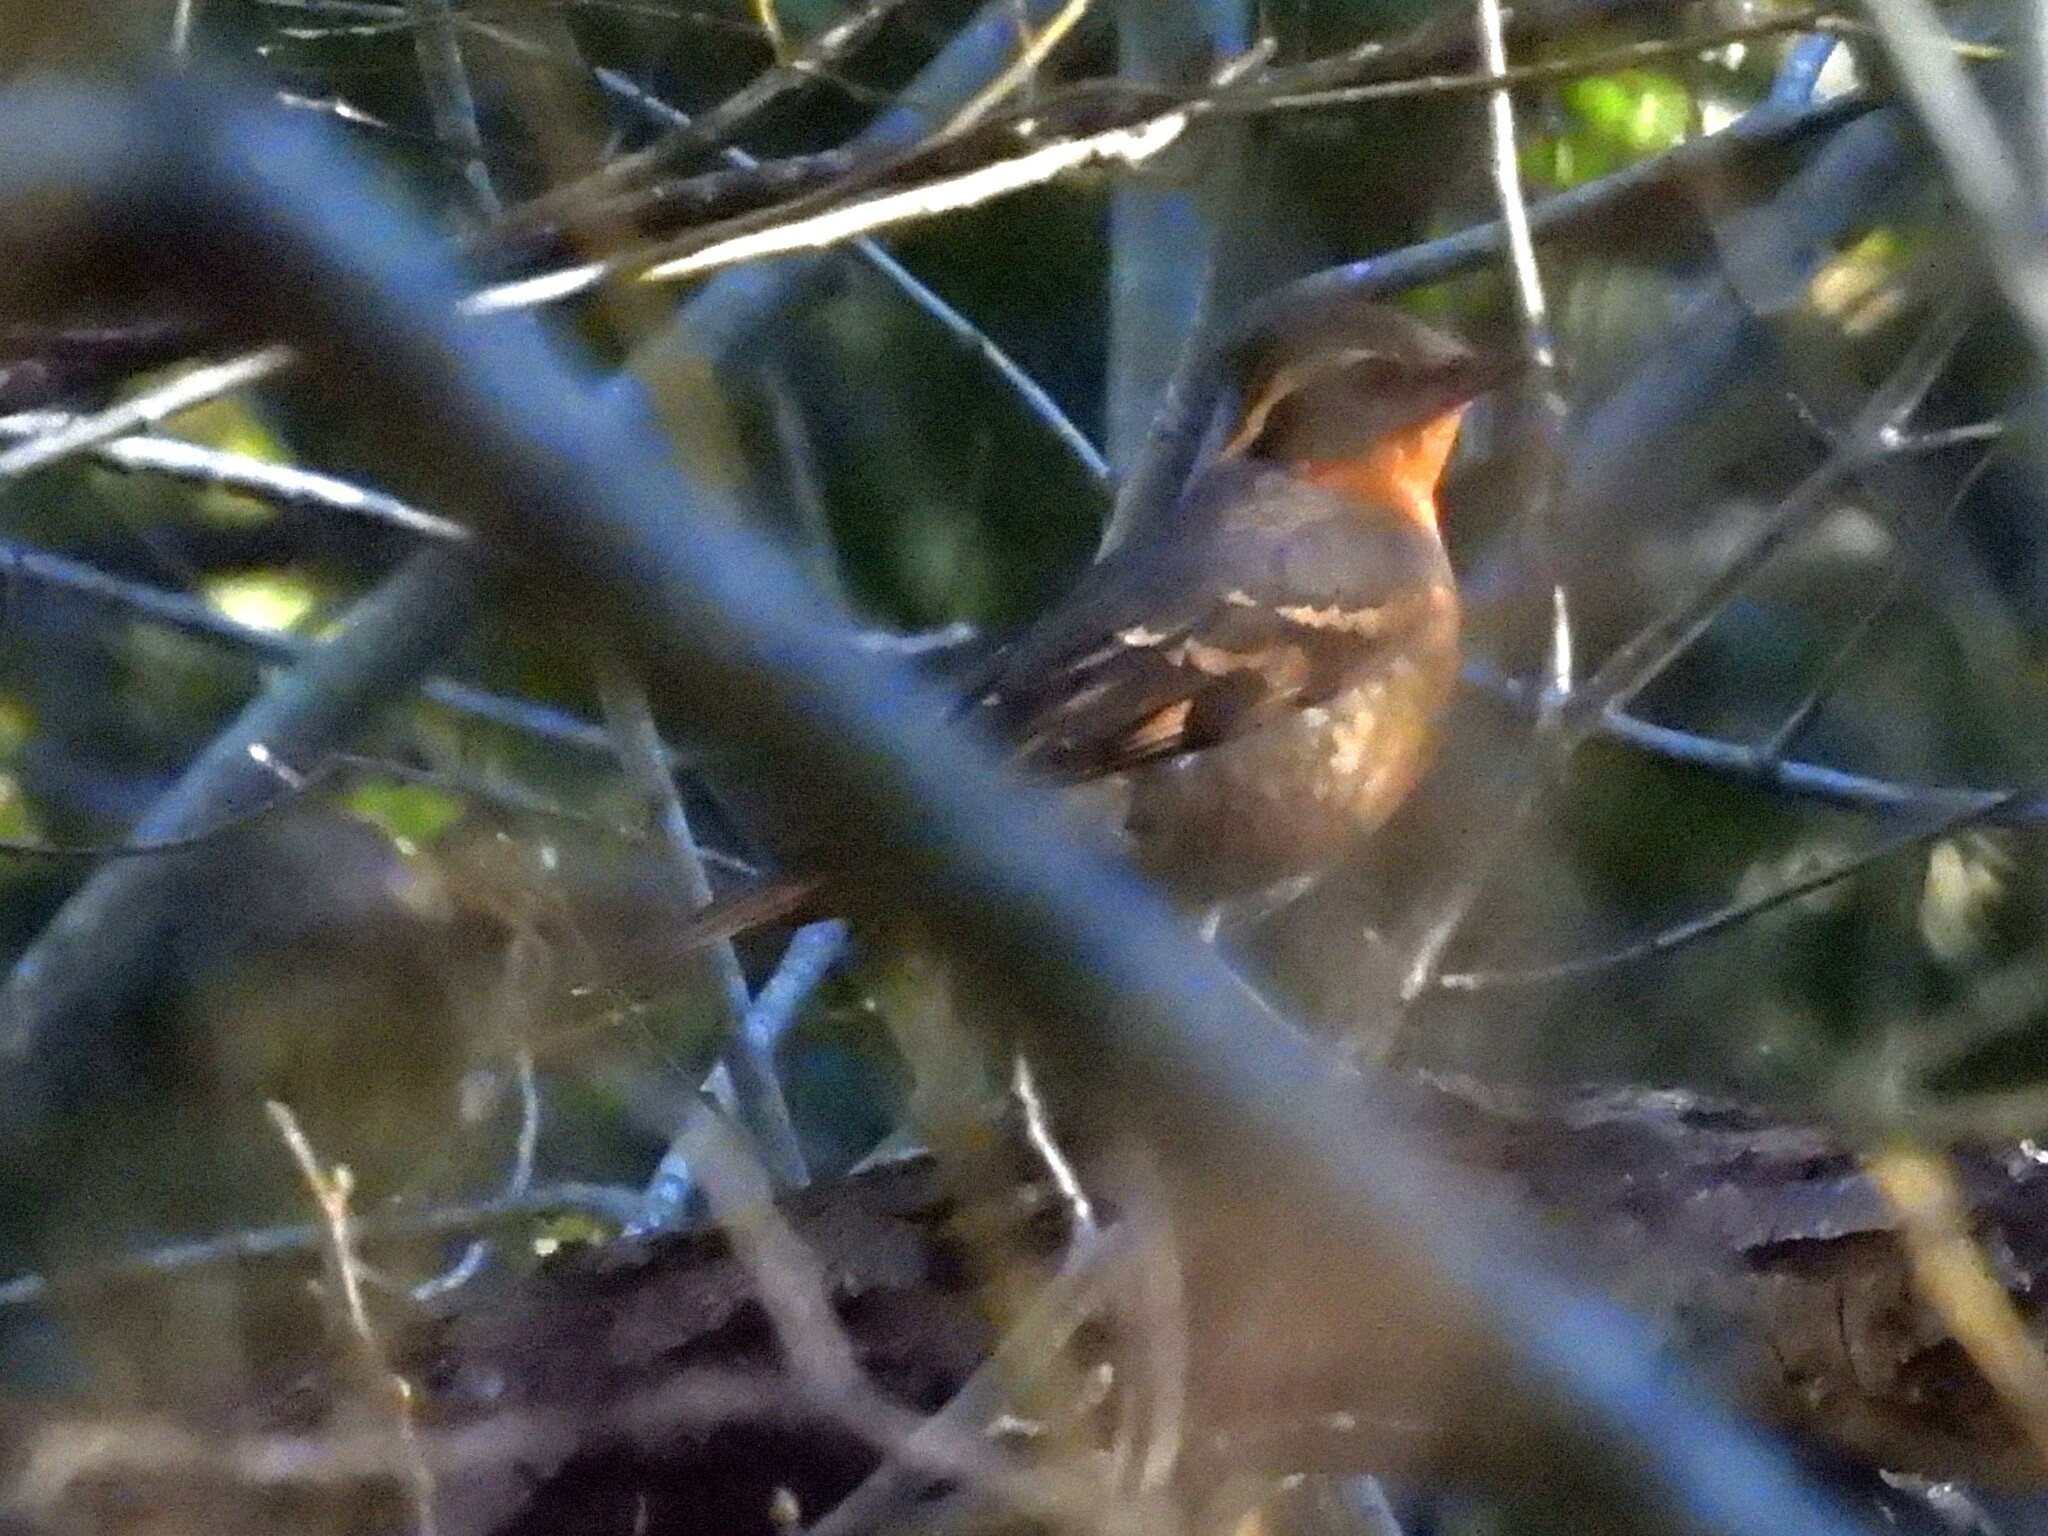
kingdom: Animalia
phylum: Chordata
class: Aves
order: Passeriformes
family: Turdidae
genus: Ixoreus
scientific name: Ixoreus naevius
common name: Varied thrush
